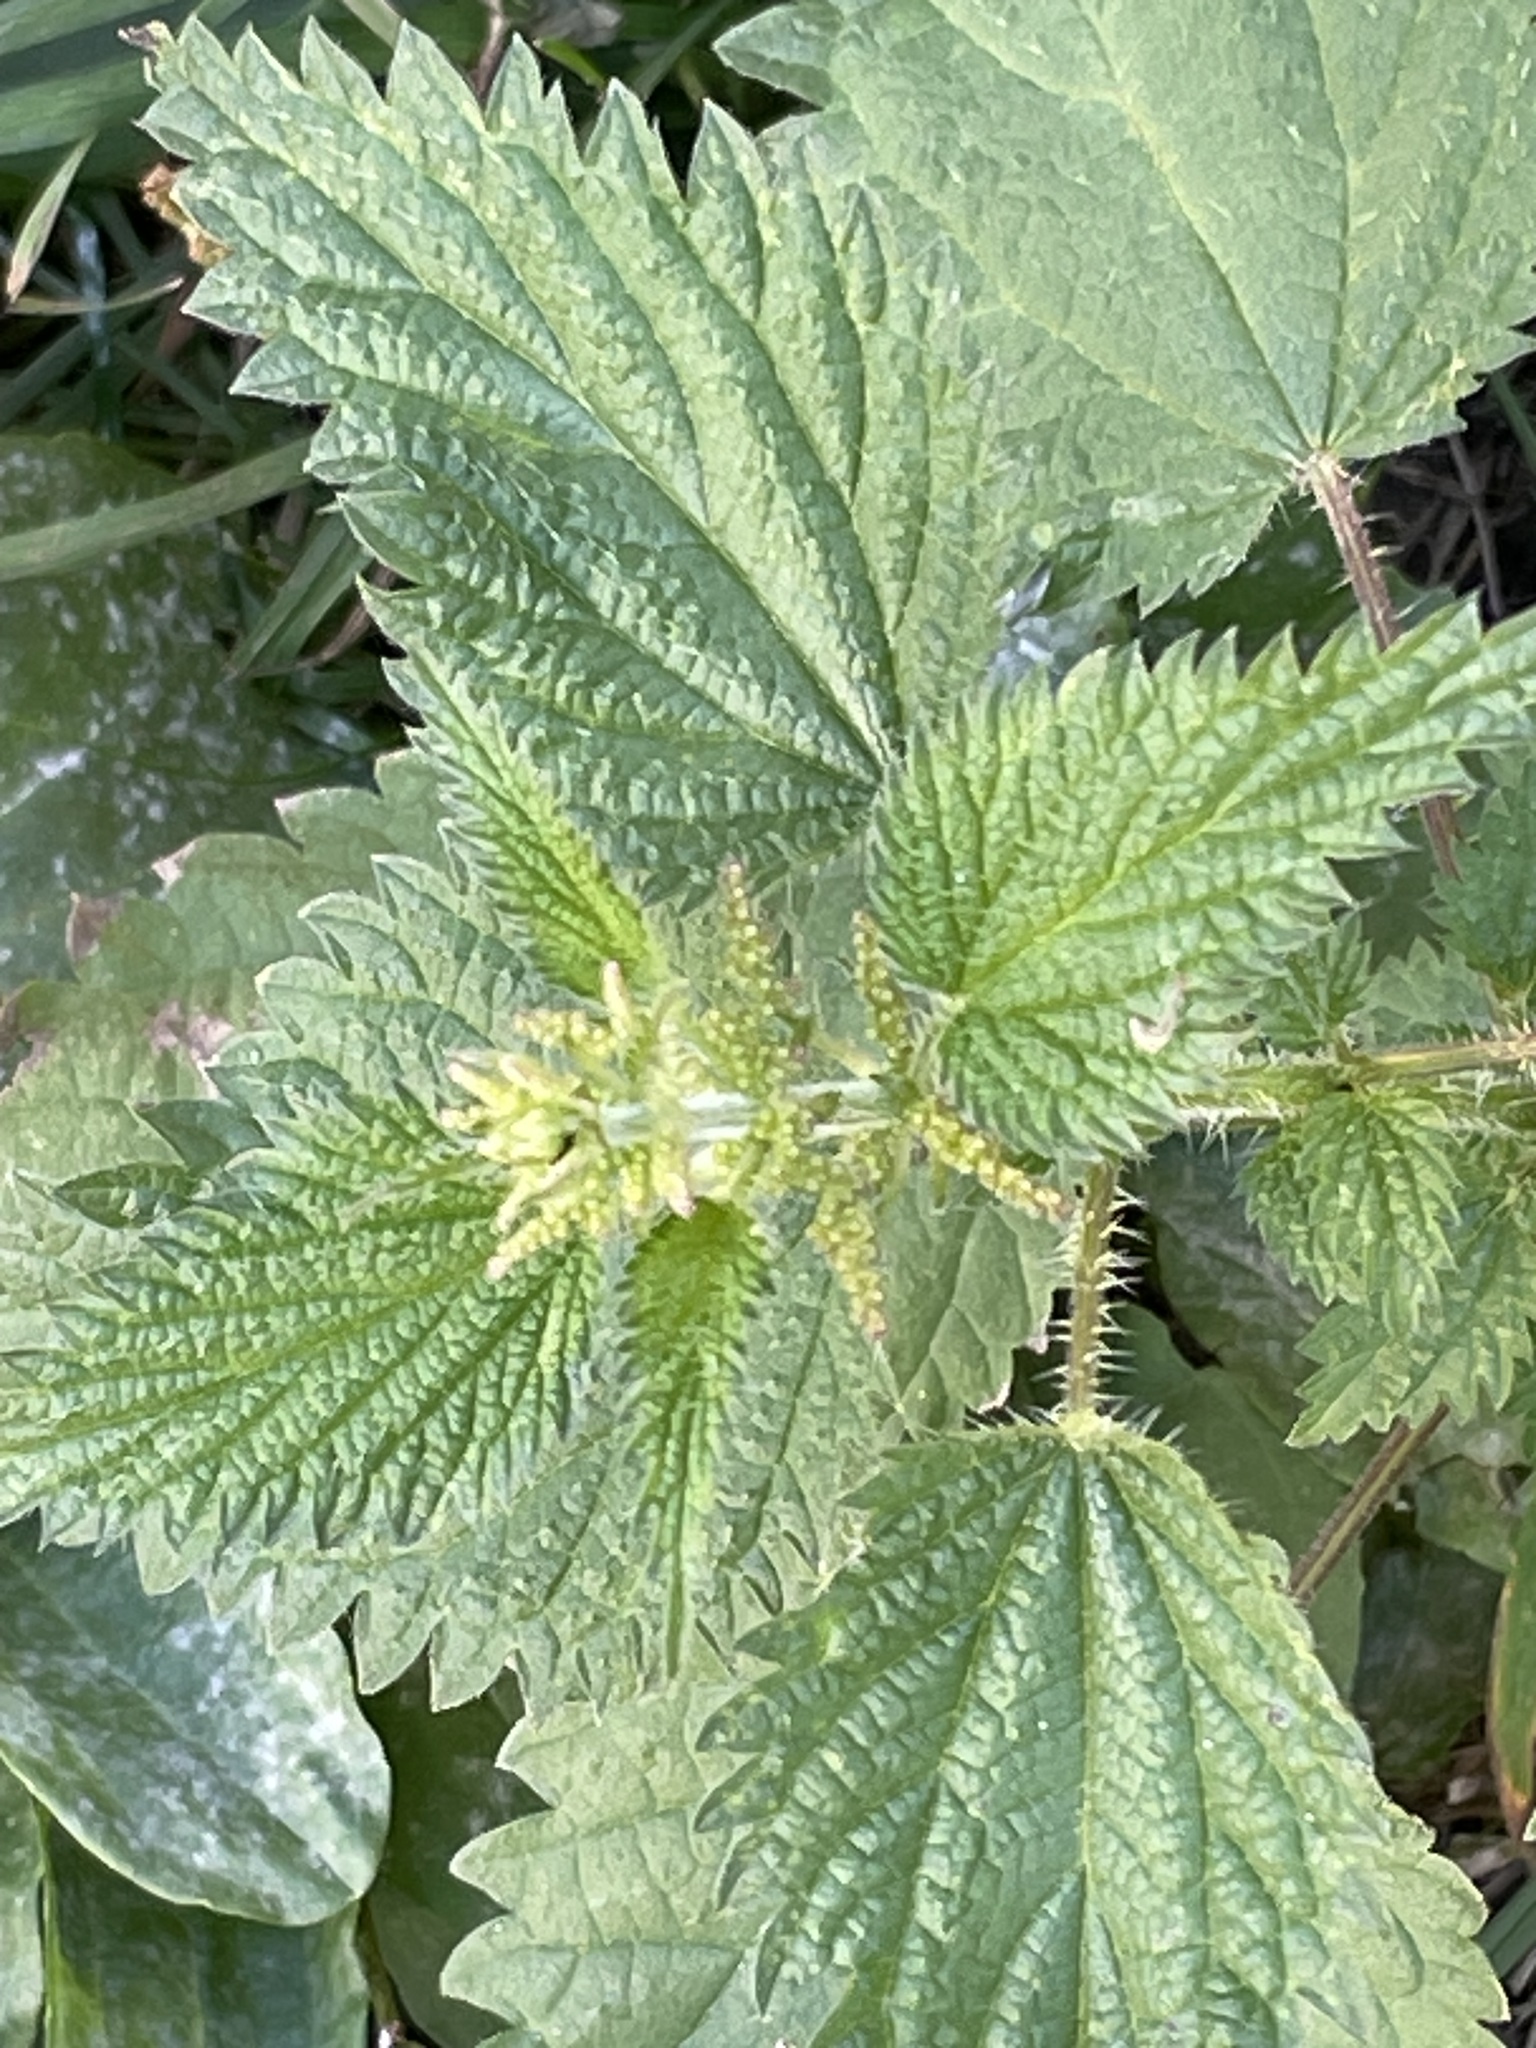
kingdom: Plantae
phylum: Tracheophyta
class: Magnoliopsida
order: Rosales
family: Urticaceae
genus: Urtica
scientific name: Urtica dioica
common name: Common nettle
